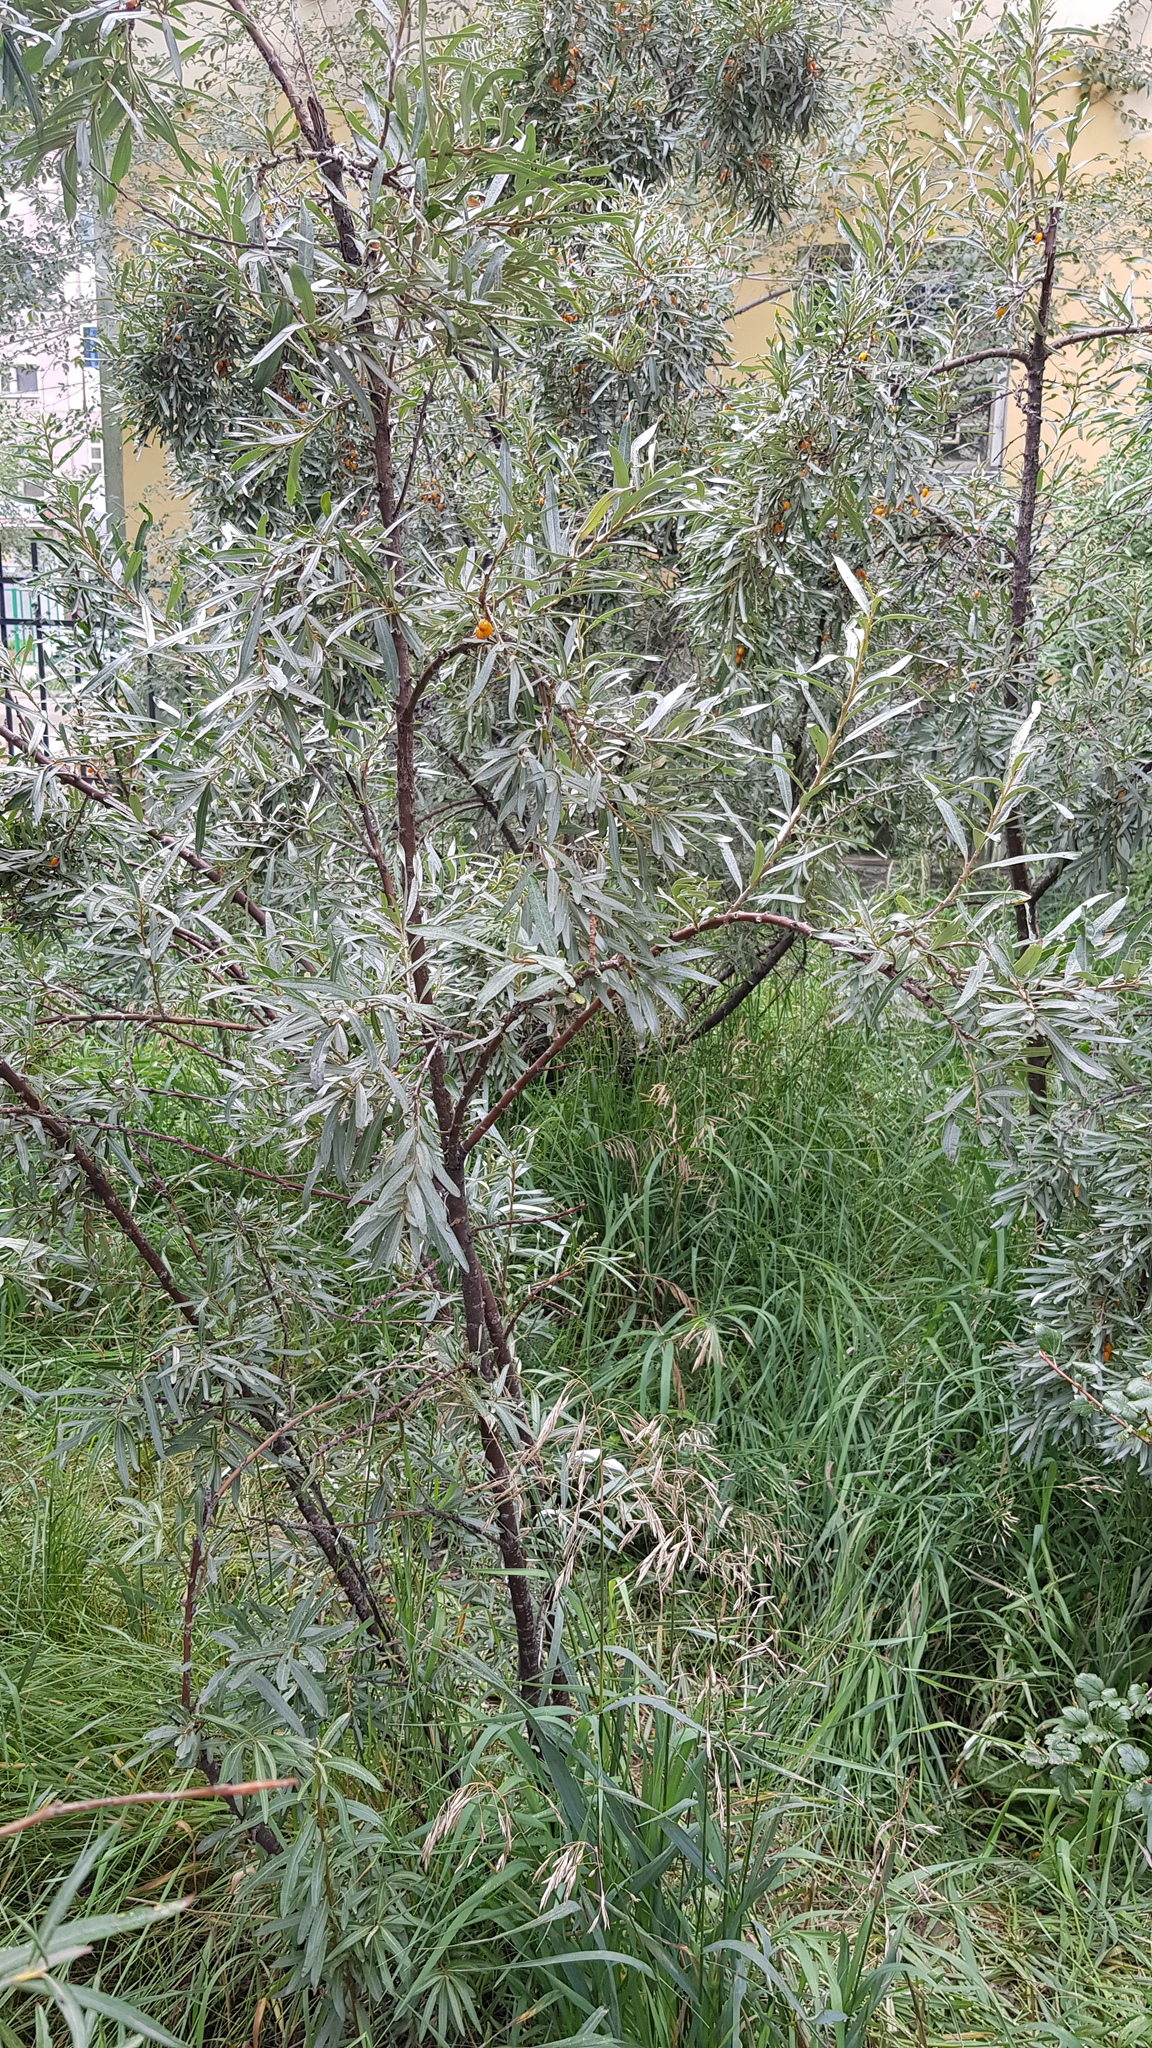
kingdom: Plantae
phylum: Tracheophyta
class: Magnoliopsida
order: Rosales
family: Elaeagnaceae
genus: Hippophae
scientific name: Hippophae rhamnoides
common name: Sea-buckthorn
